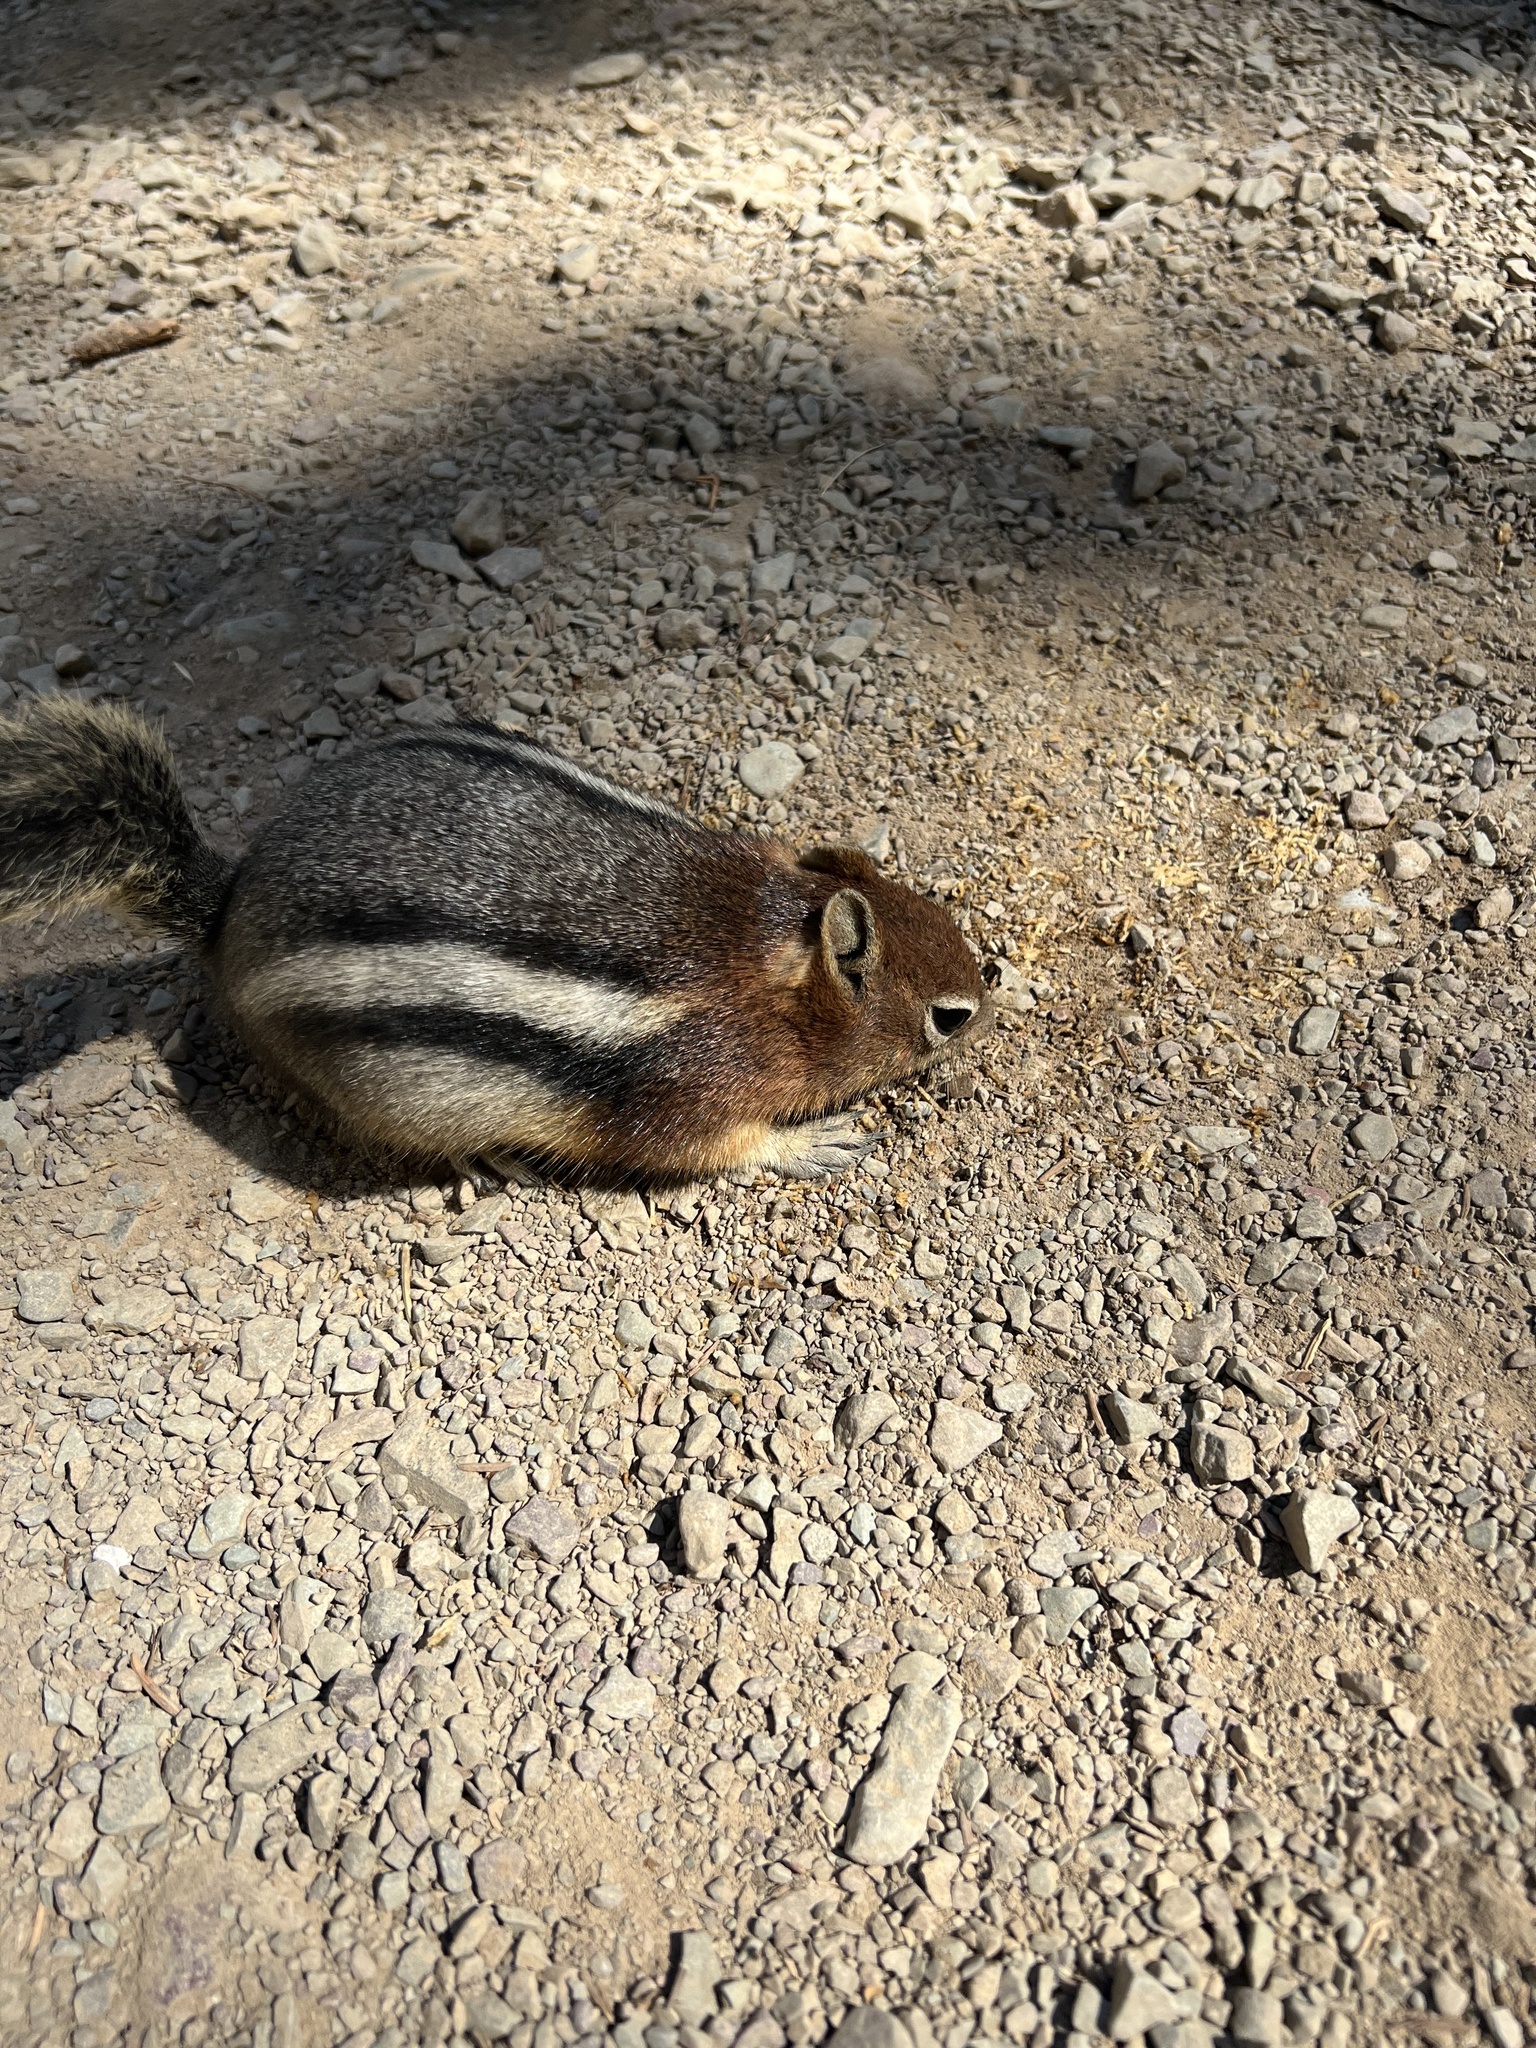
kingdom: Animalia
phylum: Chordata
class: Mammalia
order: Rodentia
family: Sciuridae
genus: Callospermophilus
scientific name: Callospermophilus lateralis
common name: Golden-mantled ground squirrel
